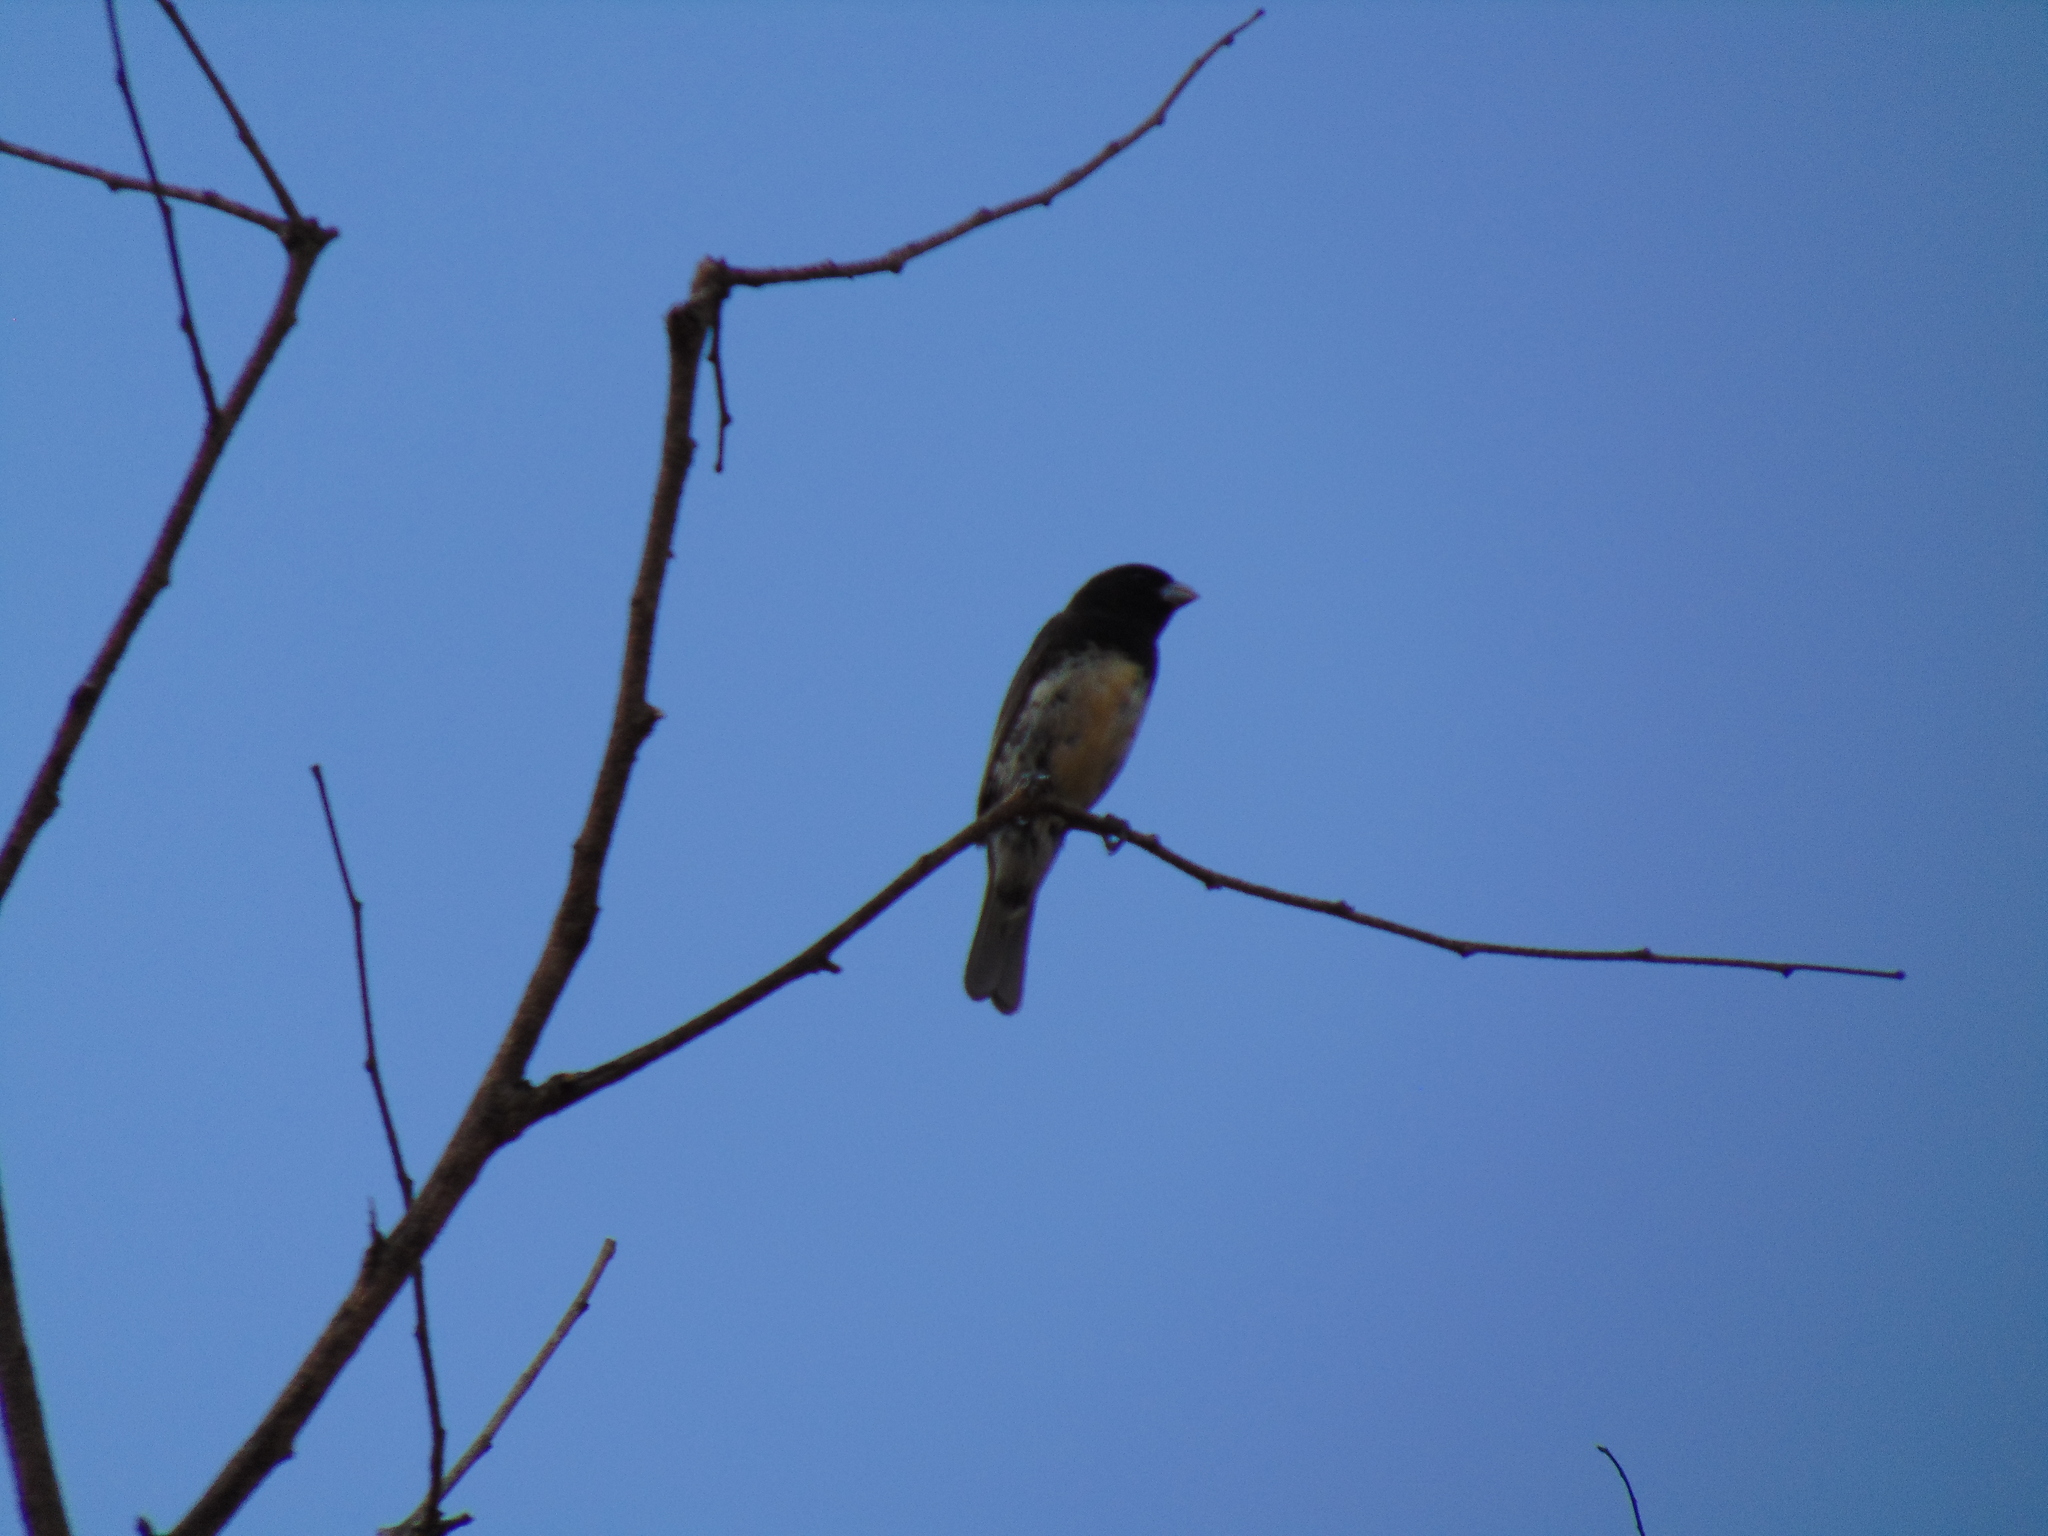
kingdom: Animalia
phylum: Chordata
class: Aves
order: Passeriformes
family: Thraupidae
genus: Sporophila
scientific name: Sporophila nigricollis
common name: Yellow-bellied seedeater
